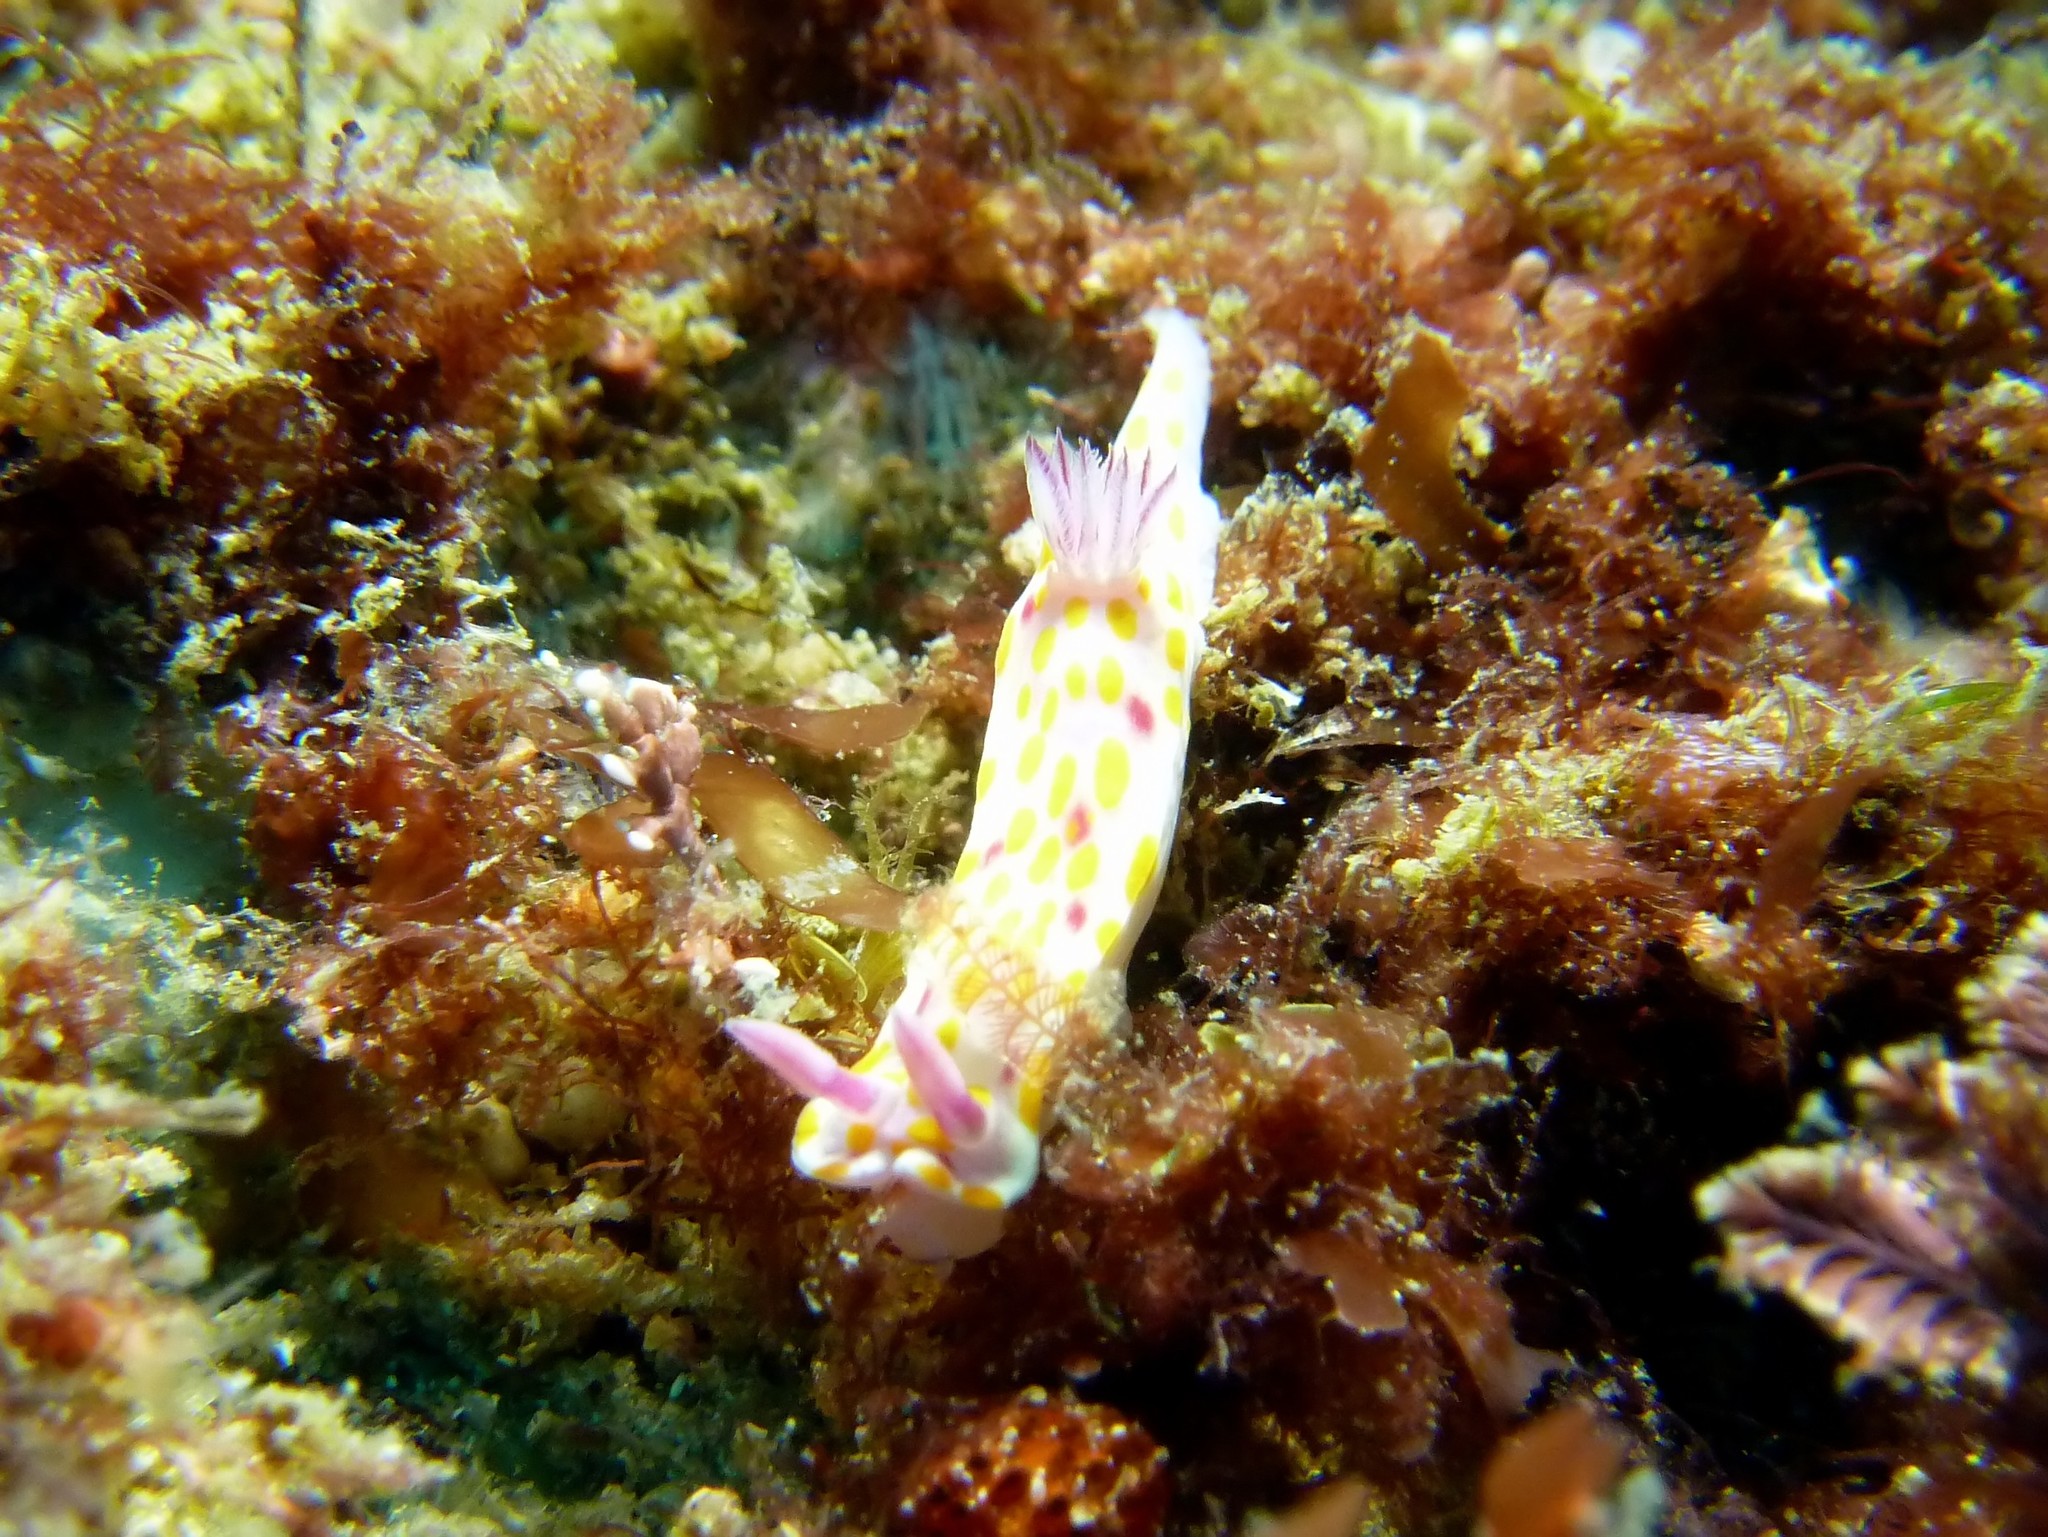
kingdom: Animalia
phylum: Mollusca
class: Gastropoda
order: Nudibranchia
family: Chromodorididae
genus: Ceratosoma
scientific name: Ceratosoma amoenum
